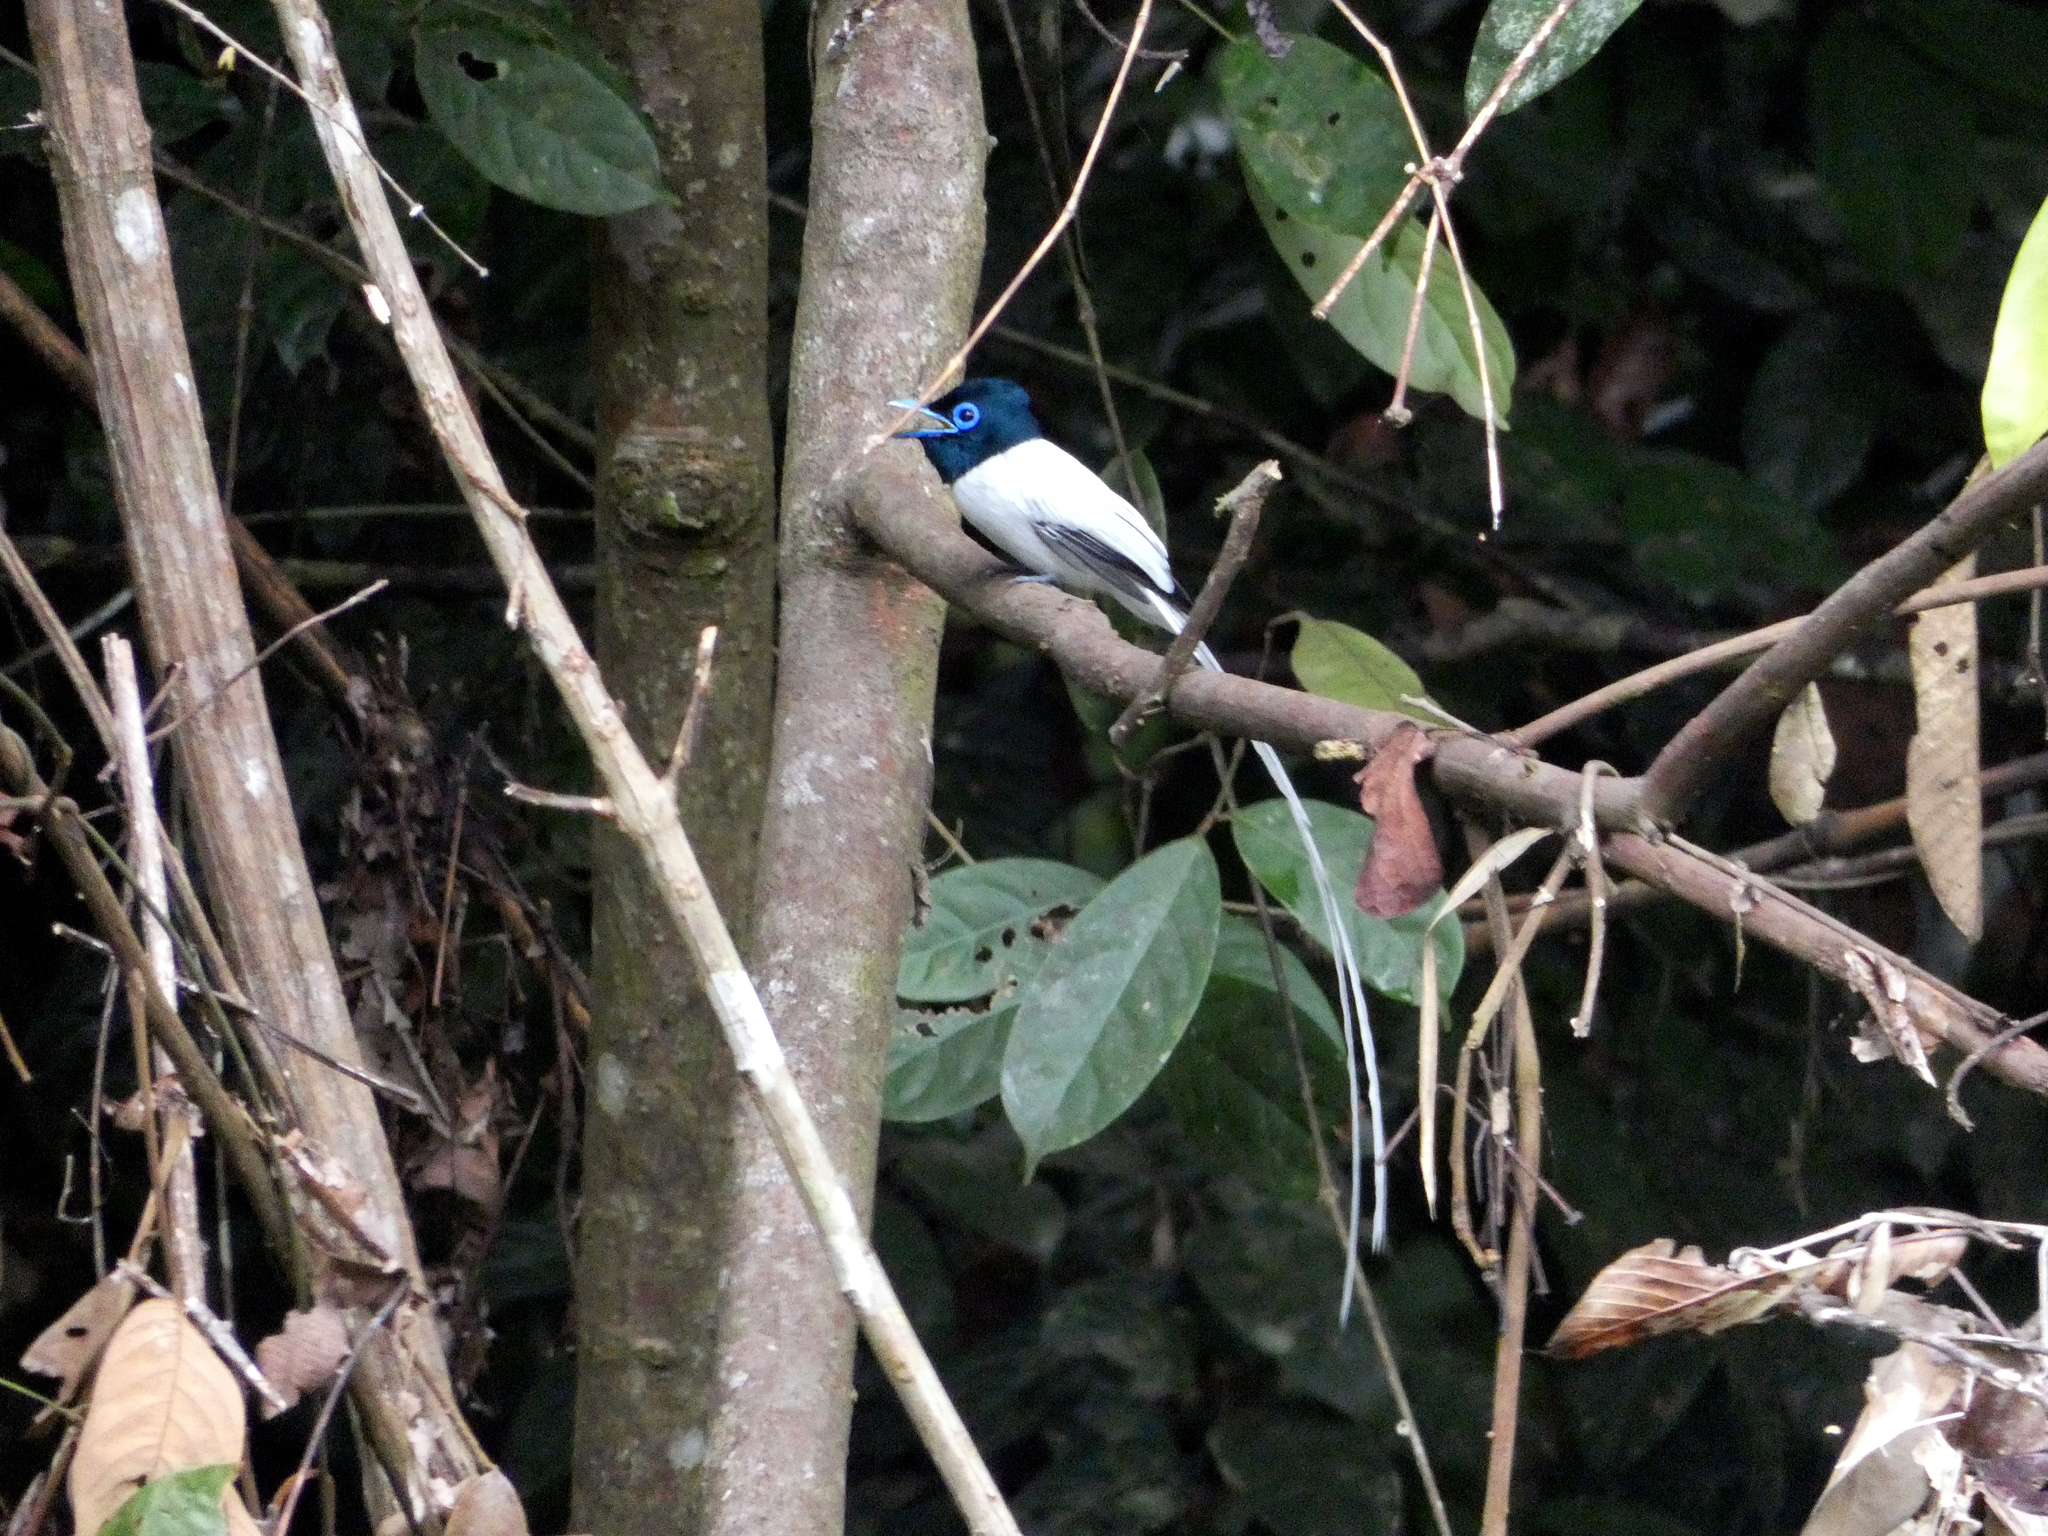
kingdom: Animalia
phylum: Chordata
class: Aves
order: Passeriformes
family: Monarchidae
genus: Terpsiphone
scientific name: Terpsiphone paradisi
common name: Indian paradise flycatcher
